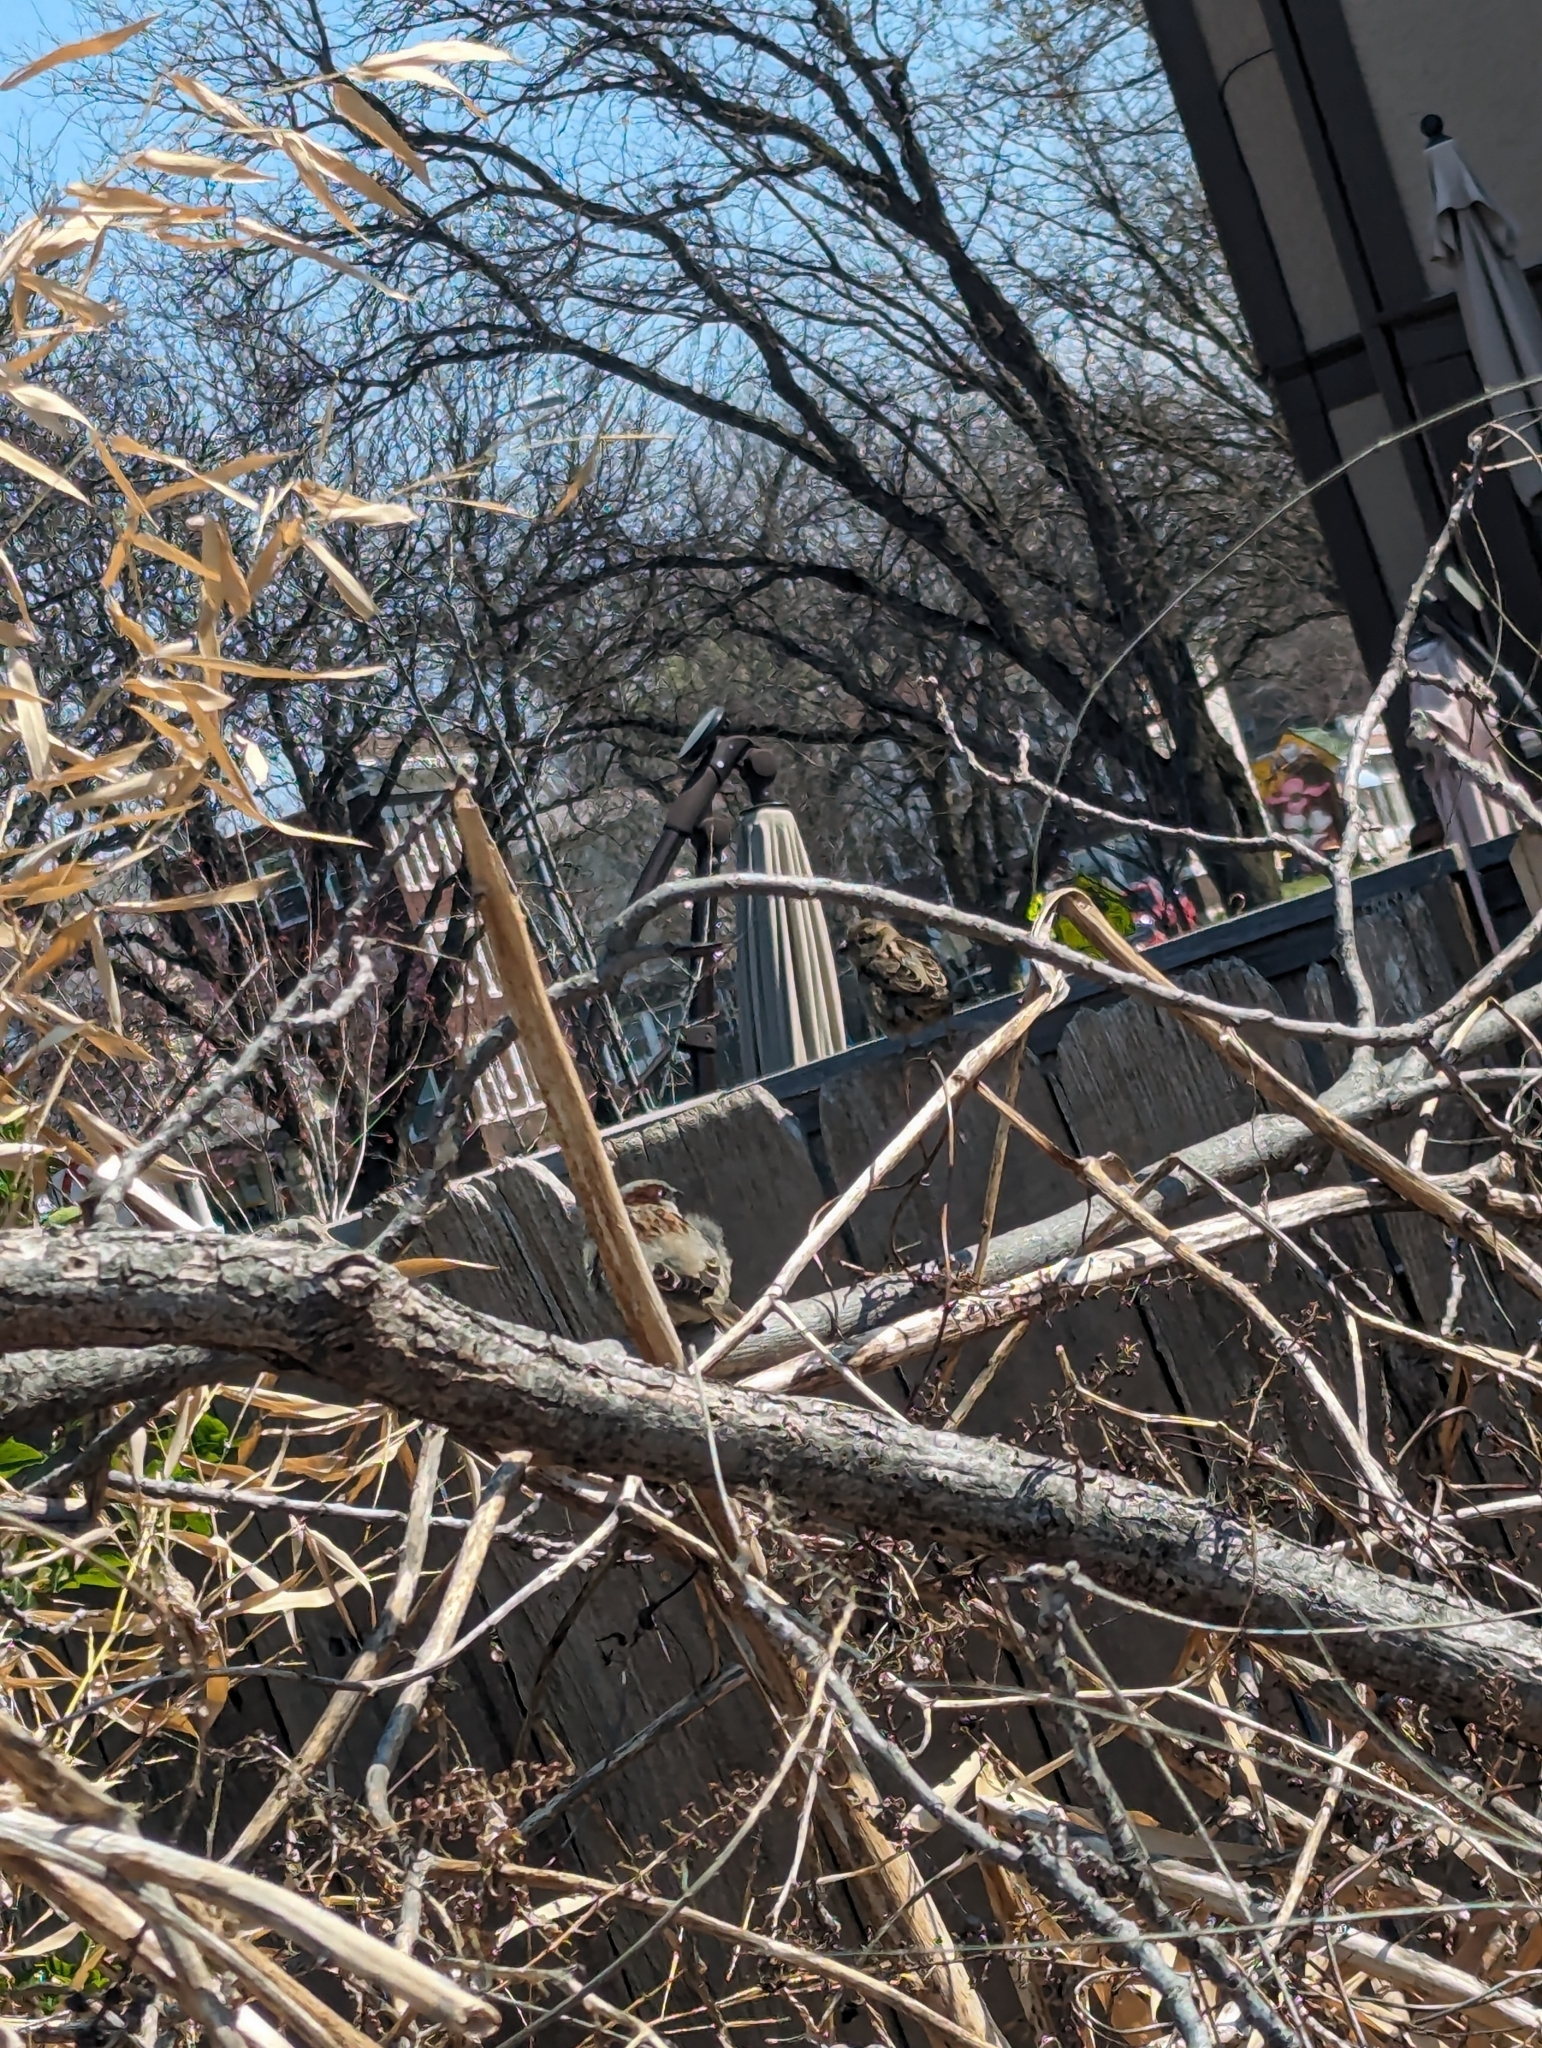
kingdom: Animalia
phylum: Chordata
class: Aves
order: Passeriformes
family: Passeridae
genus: Passer
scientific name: Passer domesticus
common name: House sparrow
